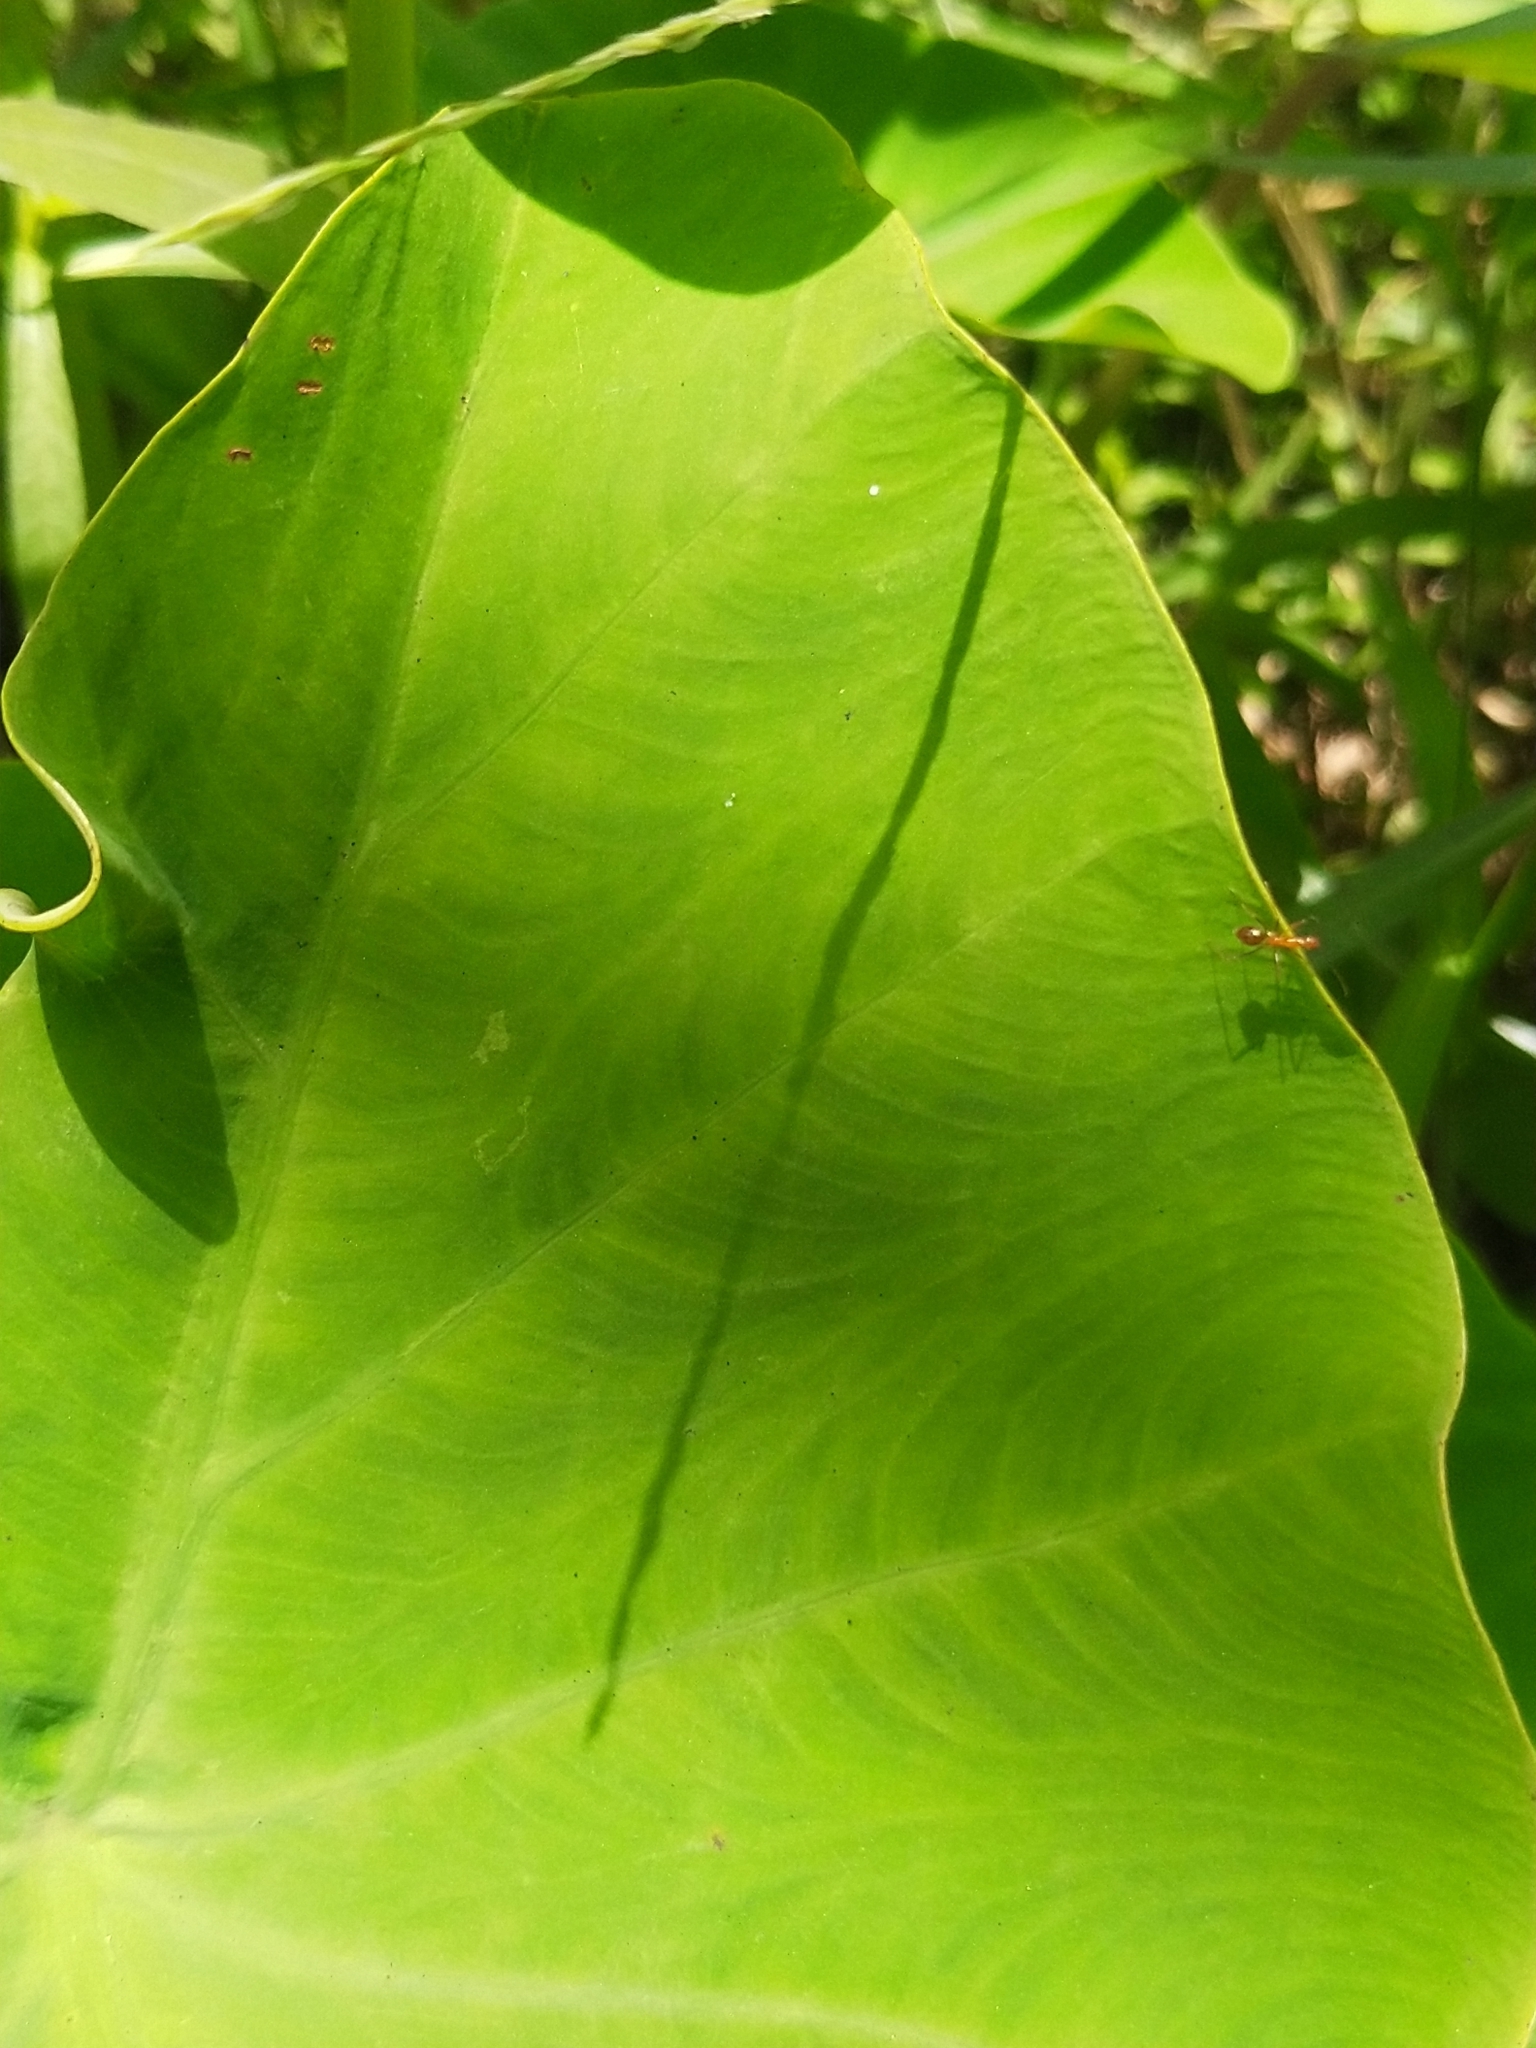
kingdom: Animalia
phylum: Arthropoda
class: Insecta
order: Hymenoptera
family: Formicidae
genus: Anoplolepis
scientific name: Anoplolepis gracilipes
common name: Ant
